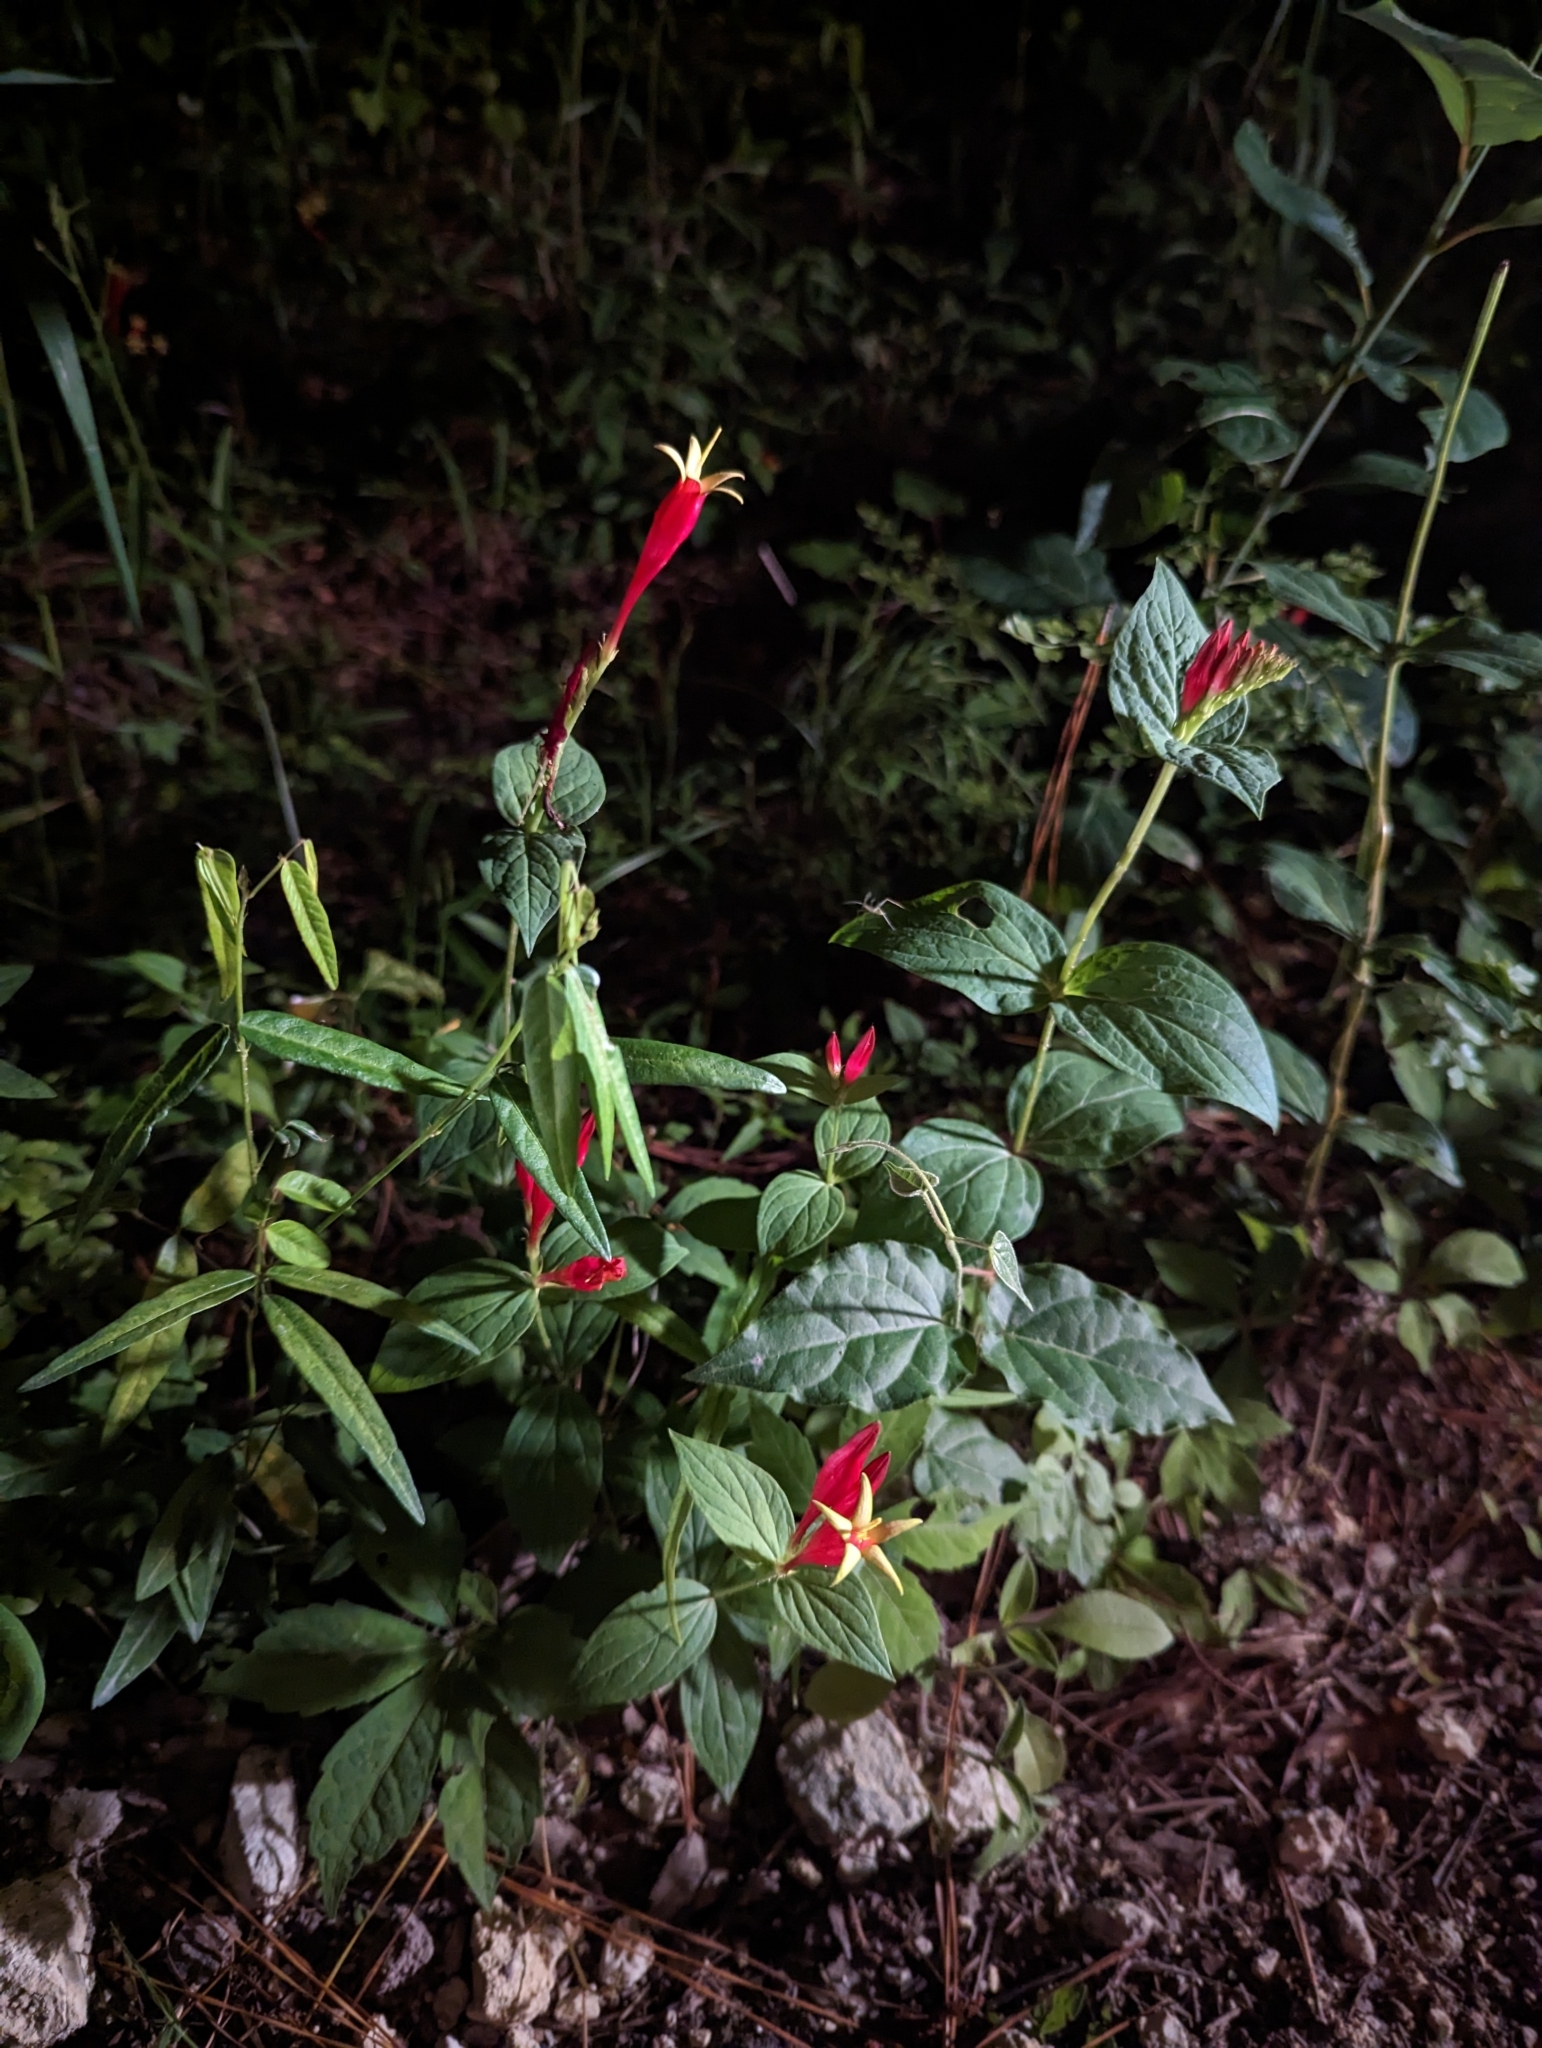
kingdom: Plantae
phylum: Tracheophyta
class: Magnoliopsida
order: Gentianales
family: Loganiaceae
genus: Spigelia
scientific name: Spigelia marilandica
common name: Indian-pink
